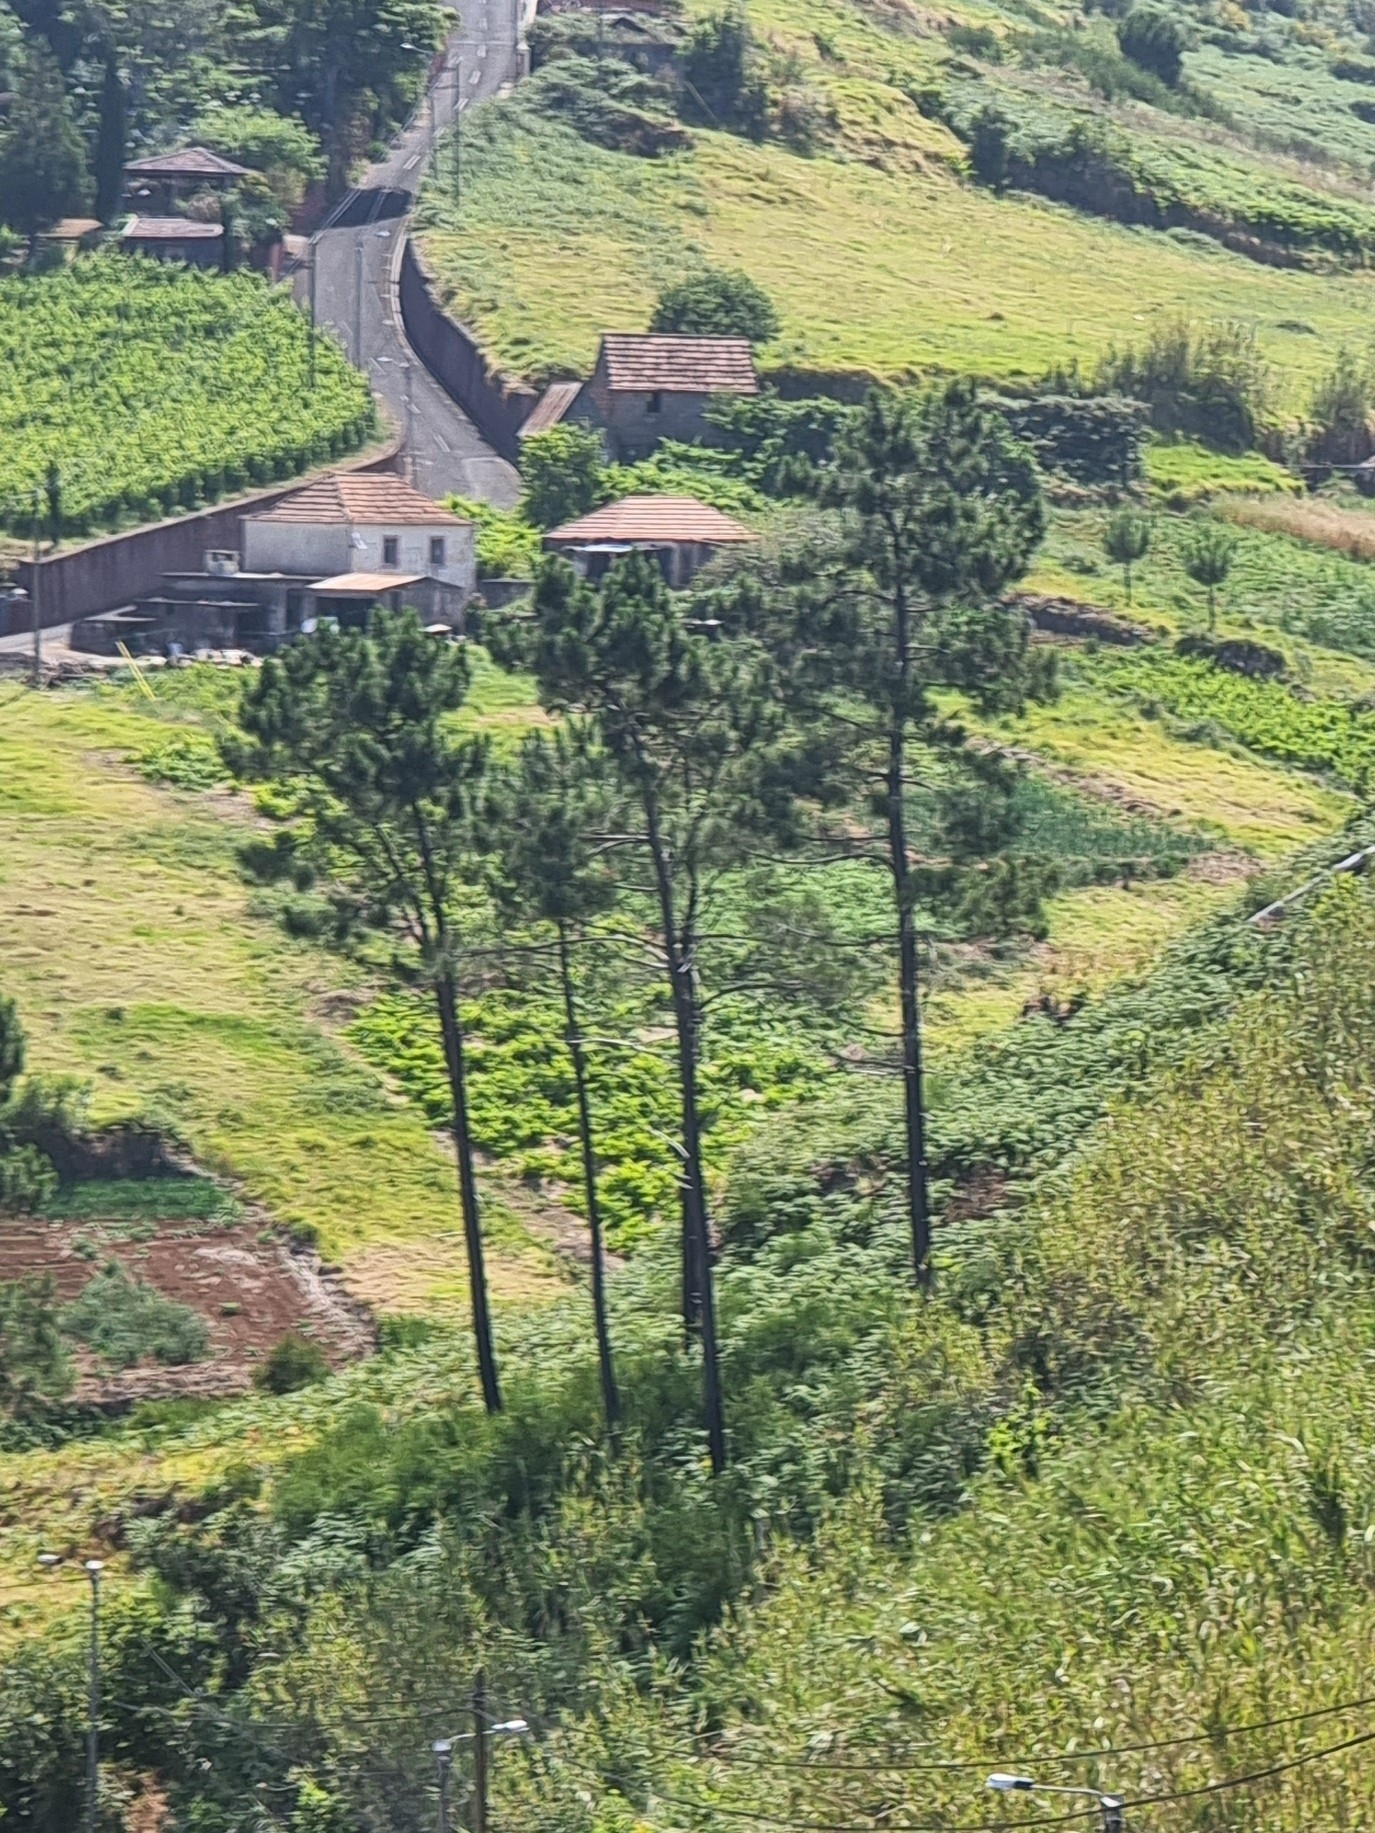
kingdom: Plantae
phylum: Tracheophyta
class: Pinopsida
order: Pinales
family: Pinaceae
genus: Pinus
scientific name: Pinus pinaster
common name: Maritime pine
